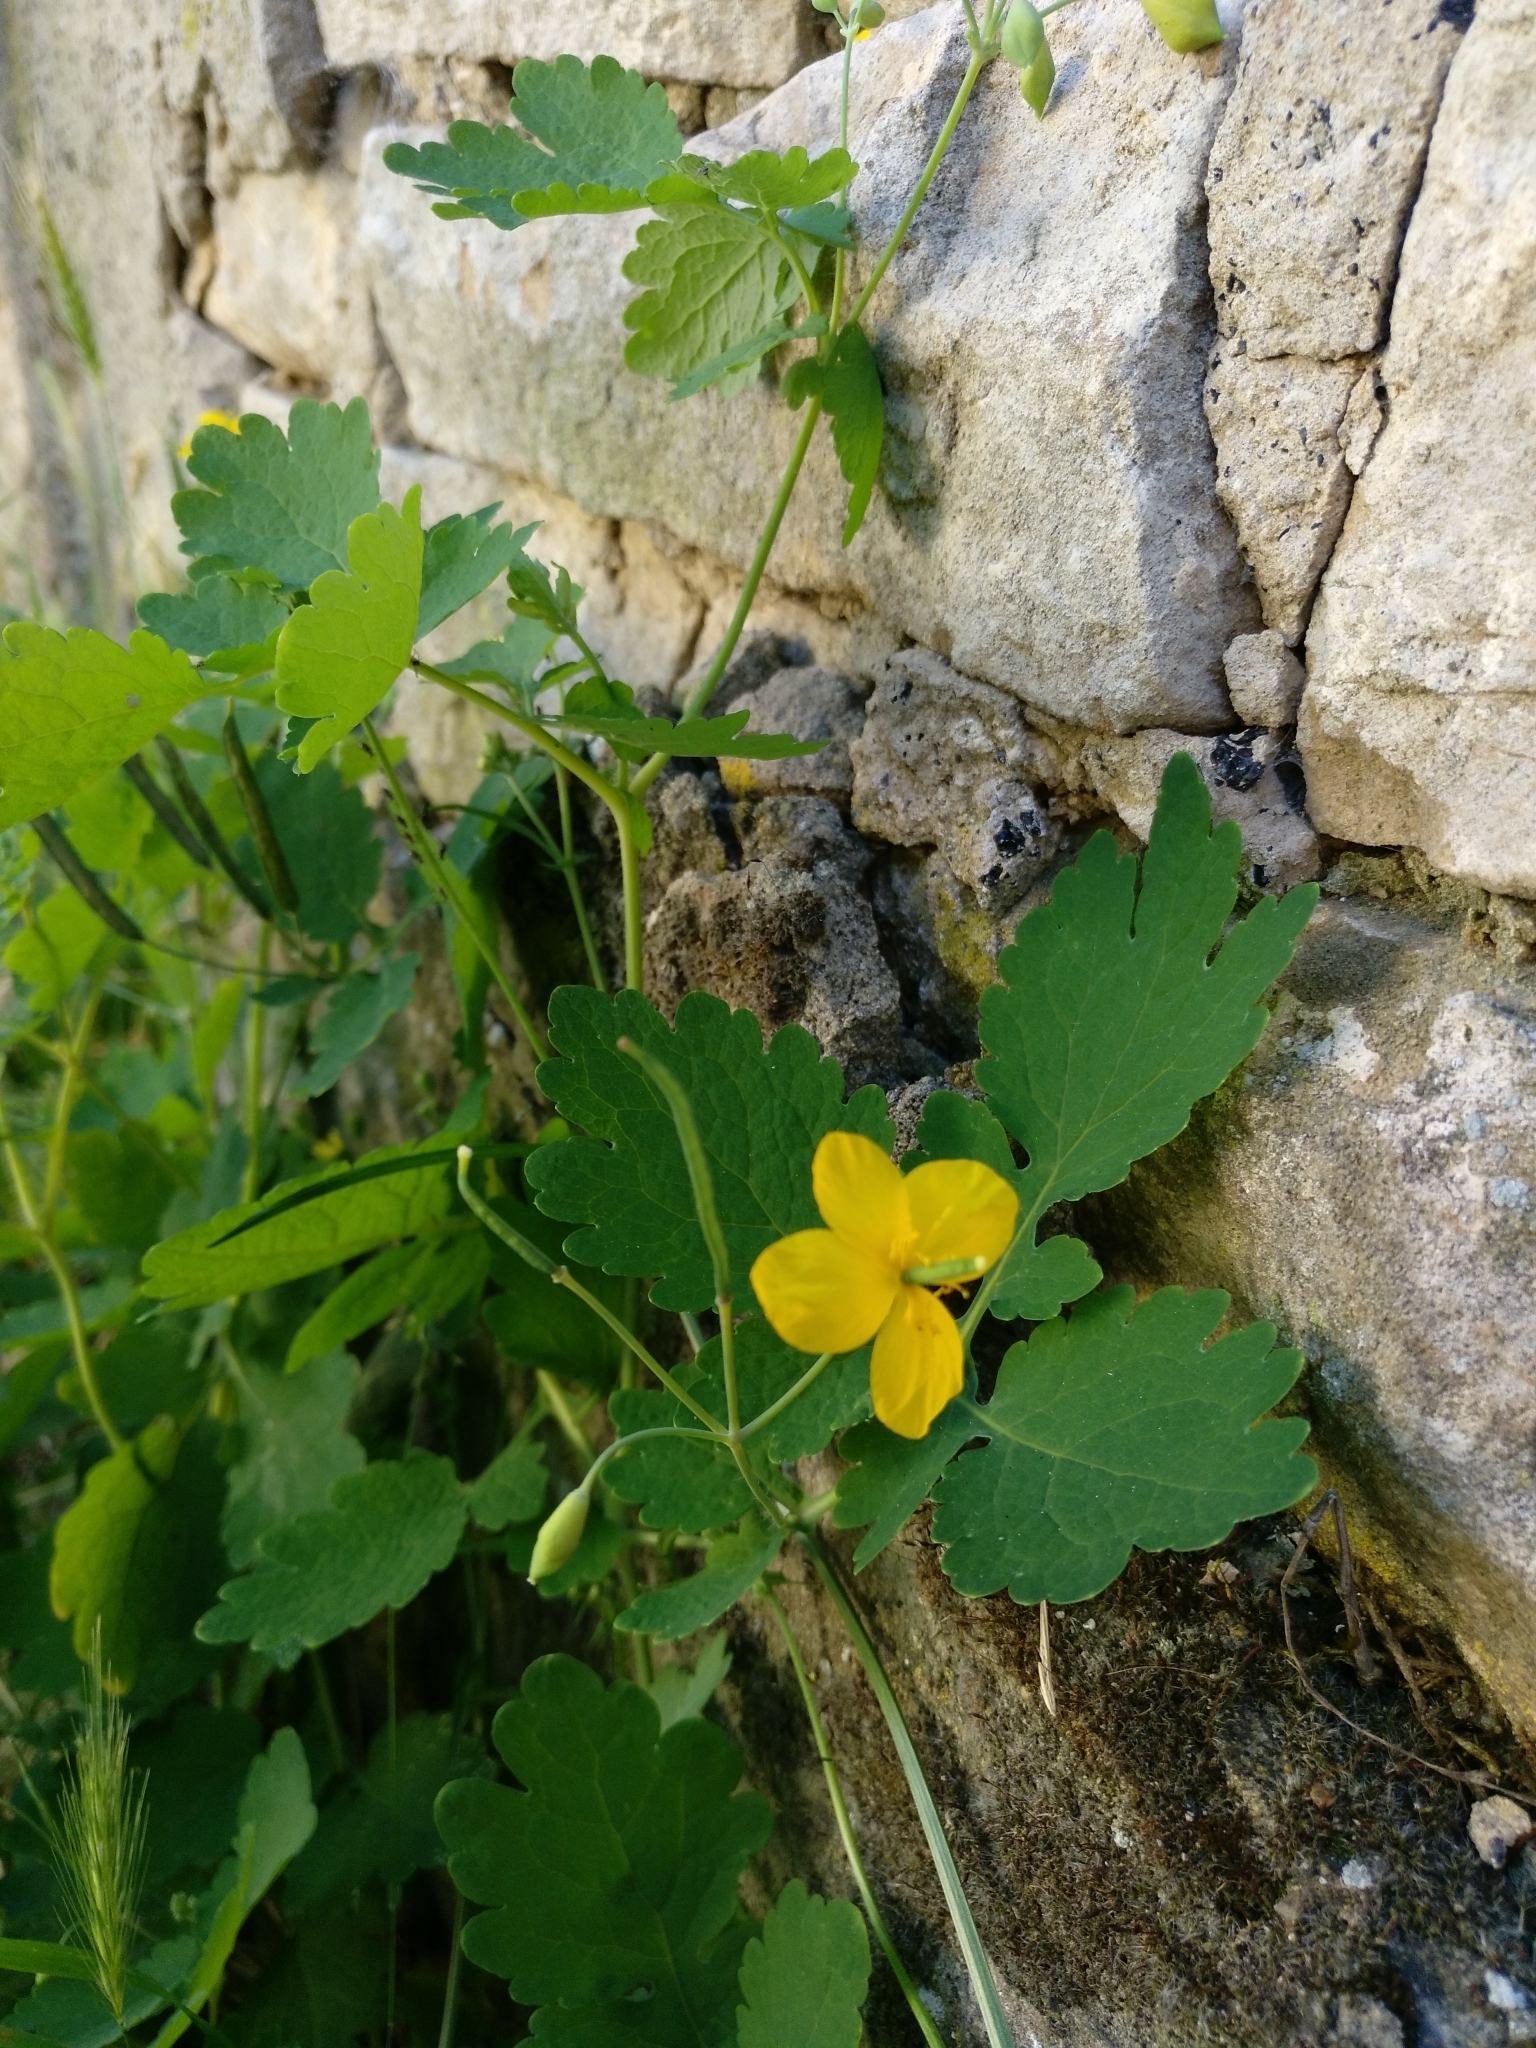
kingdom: Plantae
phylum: Tracheophyta
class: Magnoliopsida
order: Ranunculales
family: Papaveraceae
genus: Chelidonium
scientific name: Chelidonium majus
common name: Greater celandine
